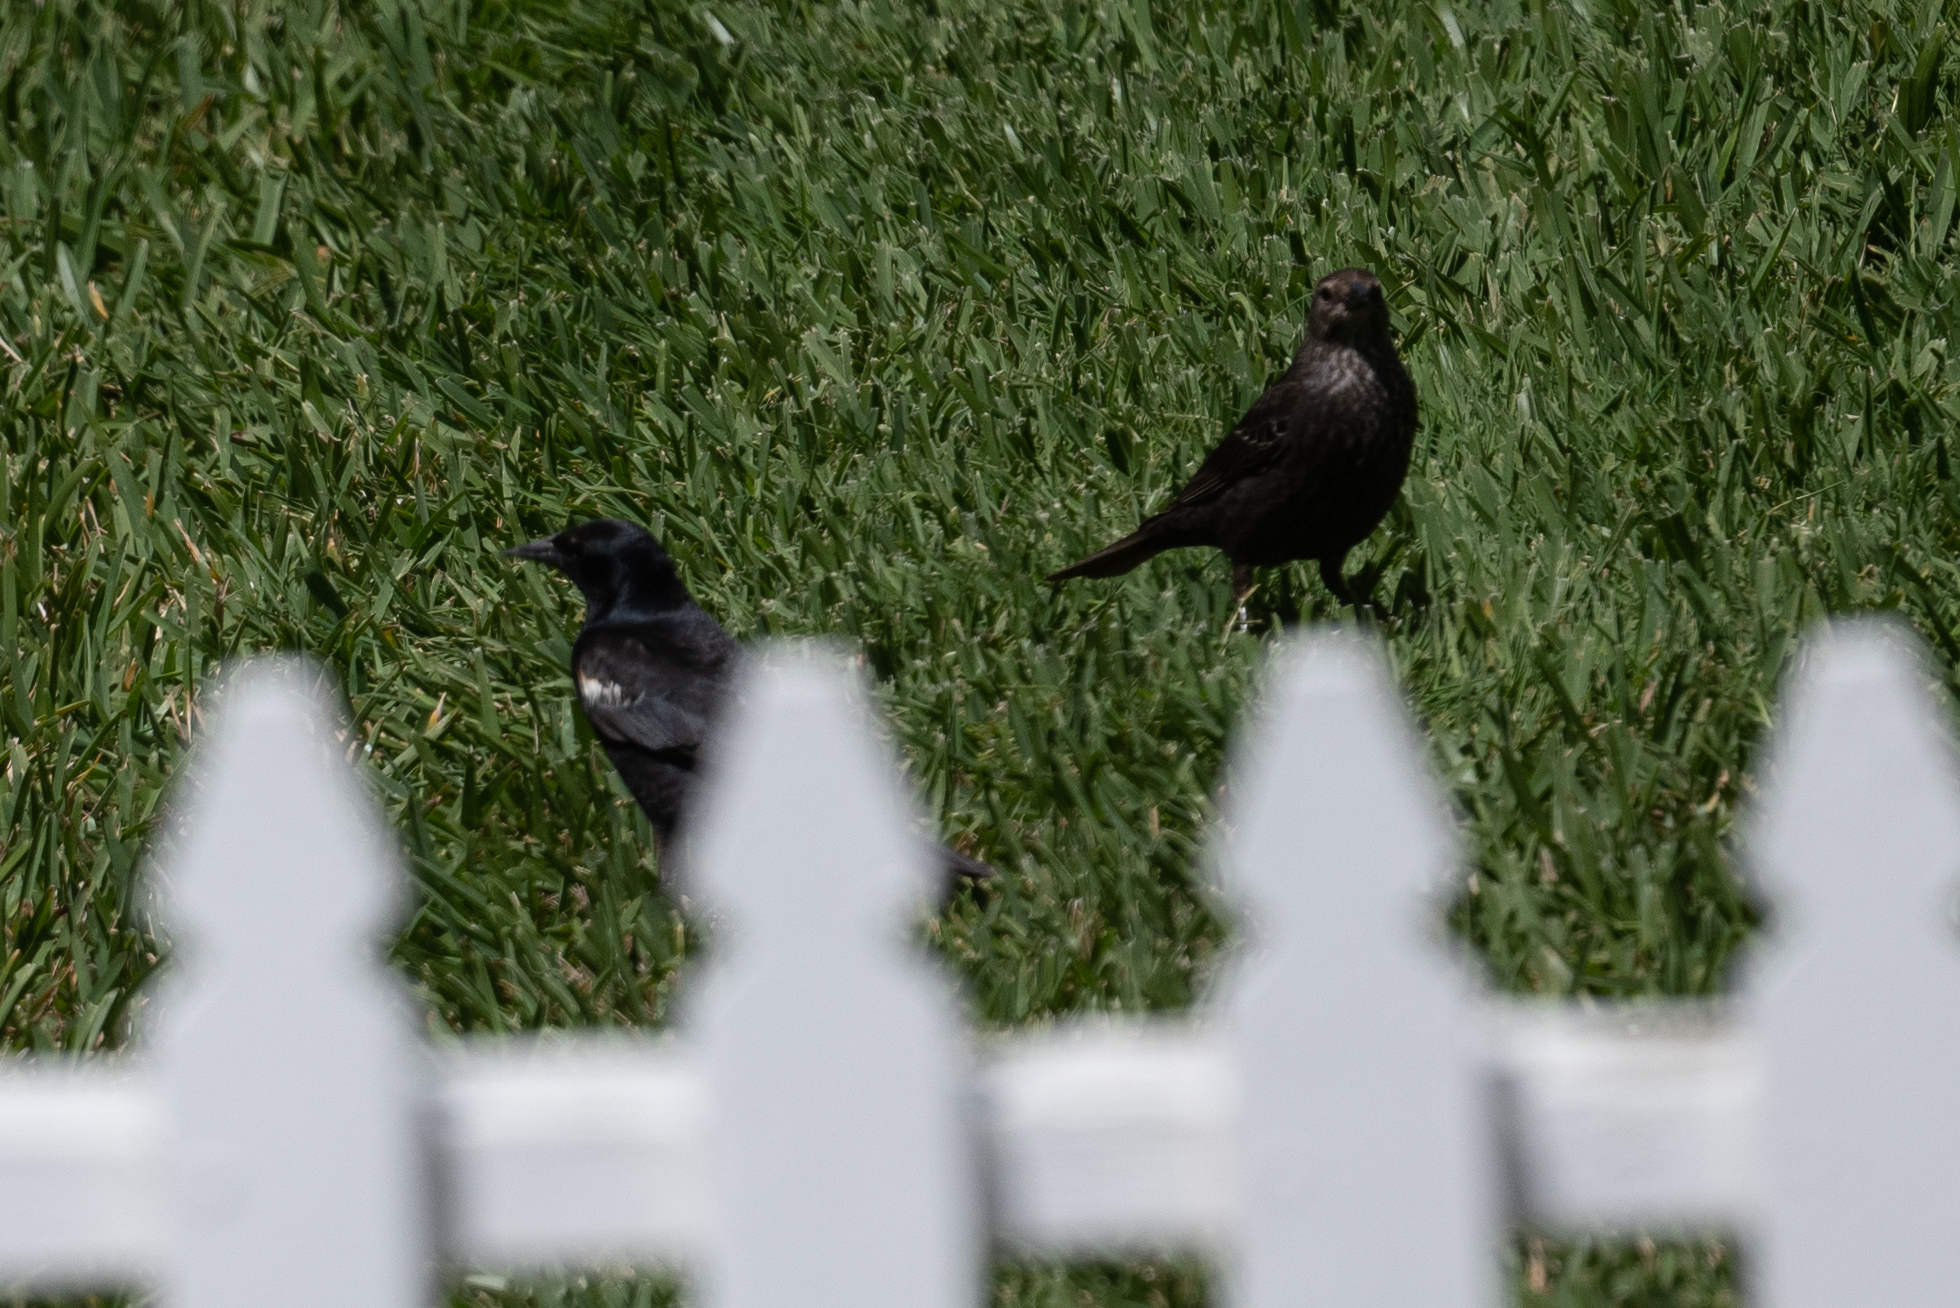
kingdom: Animalia
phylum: Chordata
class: Aves
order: Passeriformes
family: Icteridae
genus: Agelaius
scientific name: Agelaius tricolor
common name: Tricolored blackbird
